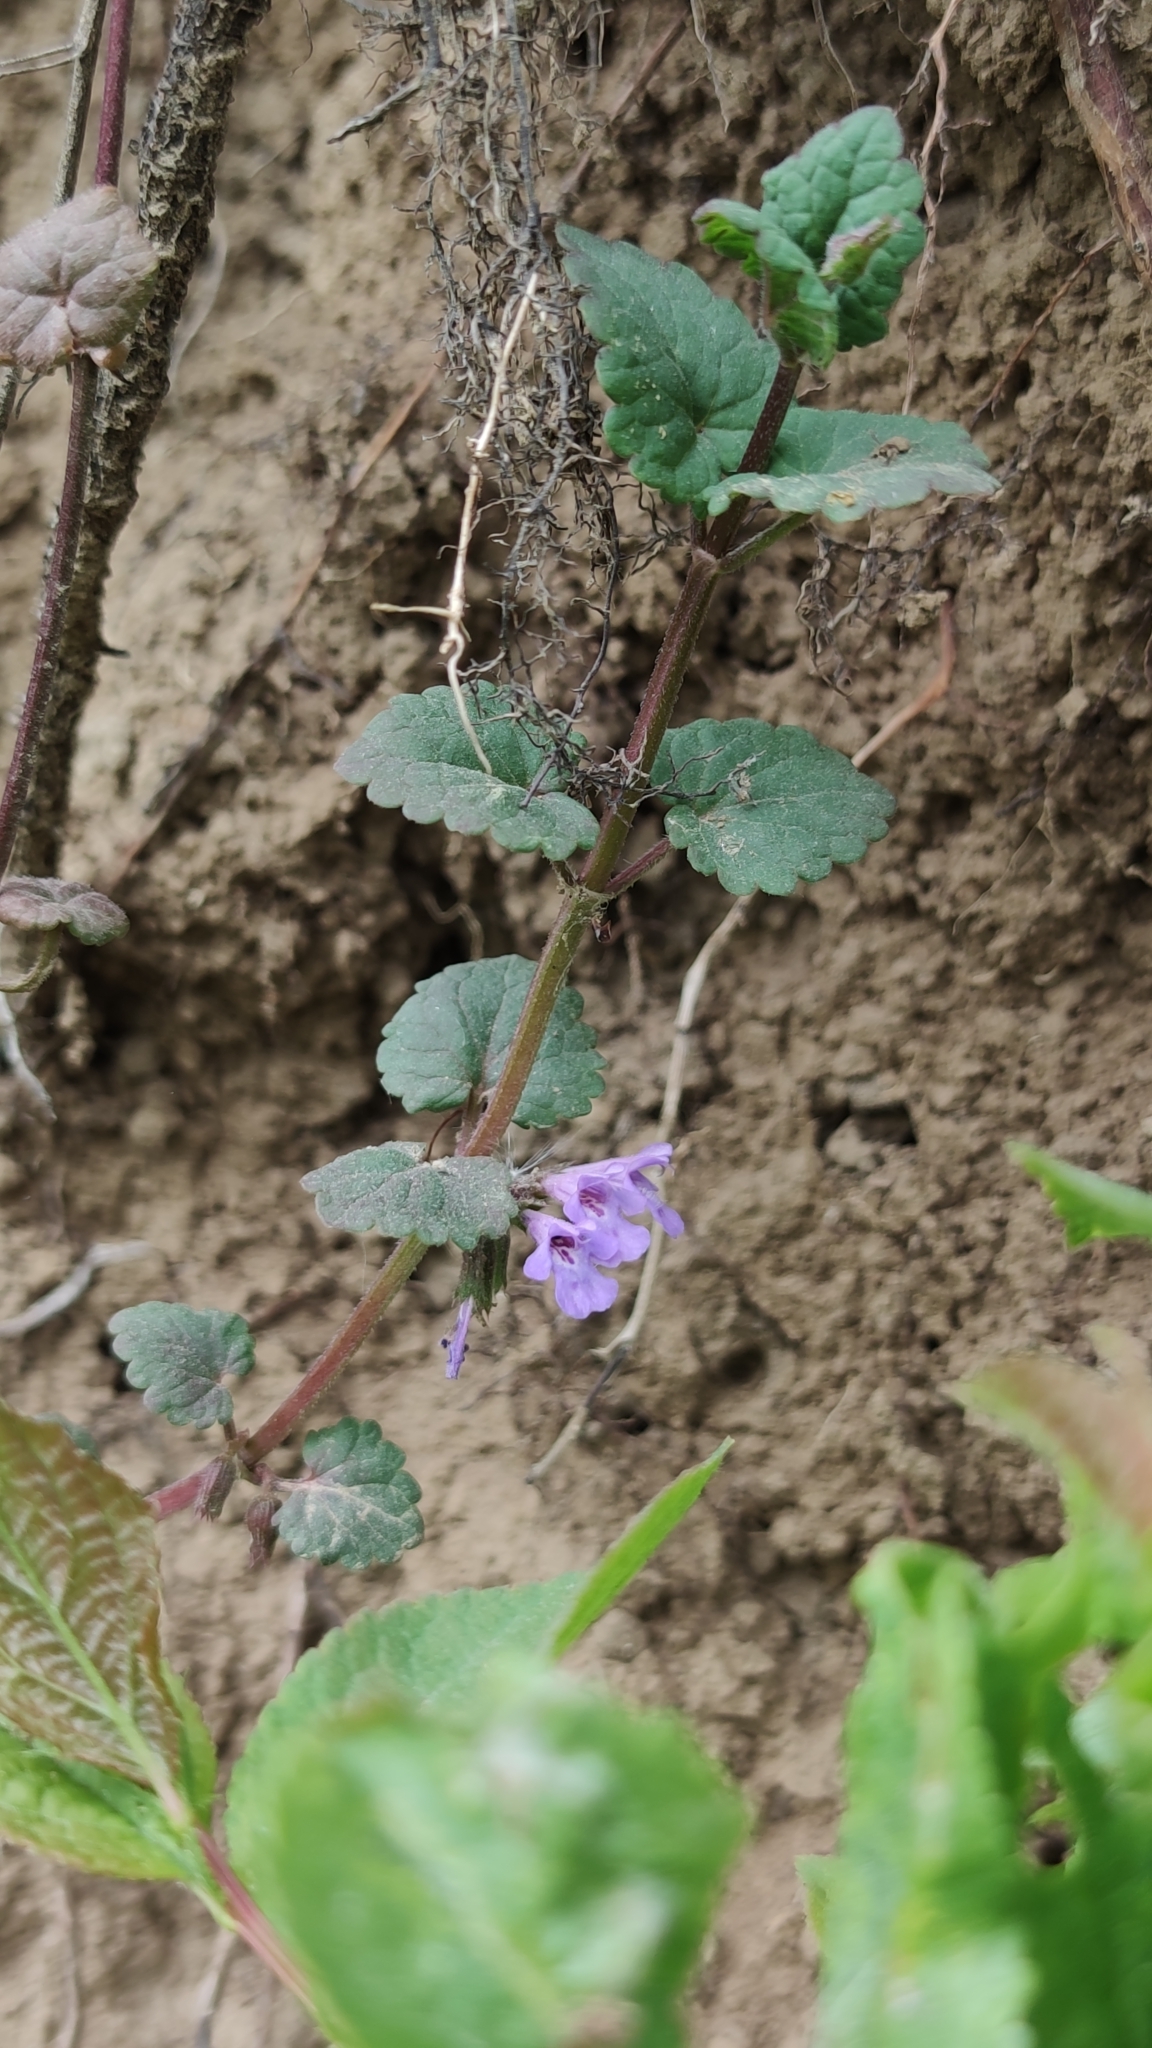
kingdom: Plantae
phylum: Tracheophyta
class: Magnoliopsida
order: Lamiales
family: Lamiaceae
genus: Glechoma
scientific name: Glechoma hederacea
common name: Ground ivy
